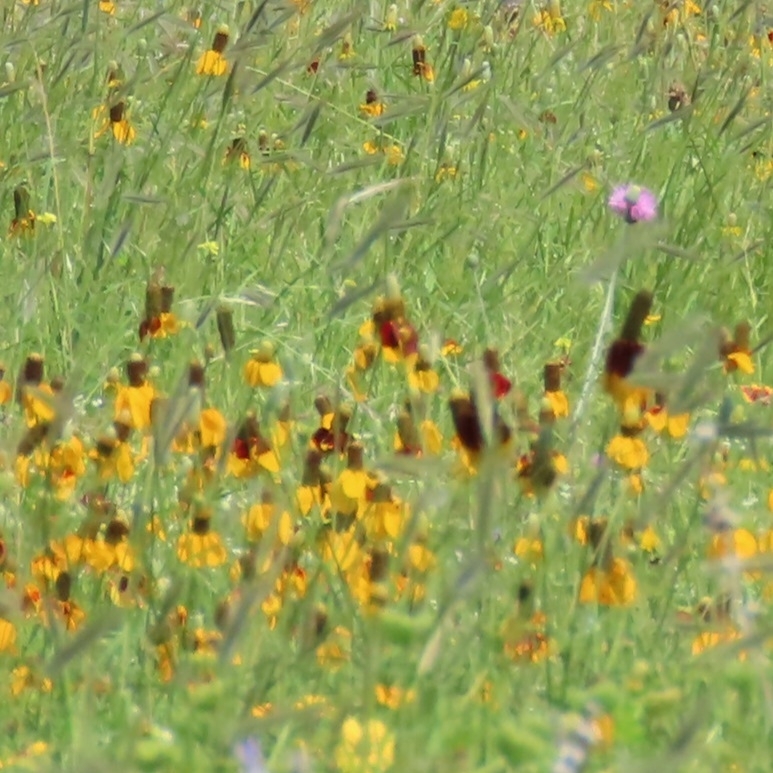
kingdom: Plantae
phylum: Tracheophyta
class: Magnoliopsida
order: Asterales
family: Asteraceae
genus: Ratibida
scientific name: Ratibida columnifera
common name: Prairie coneflower
